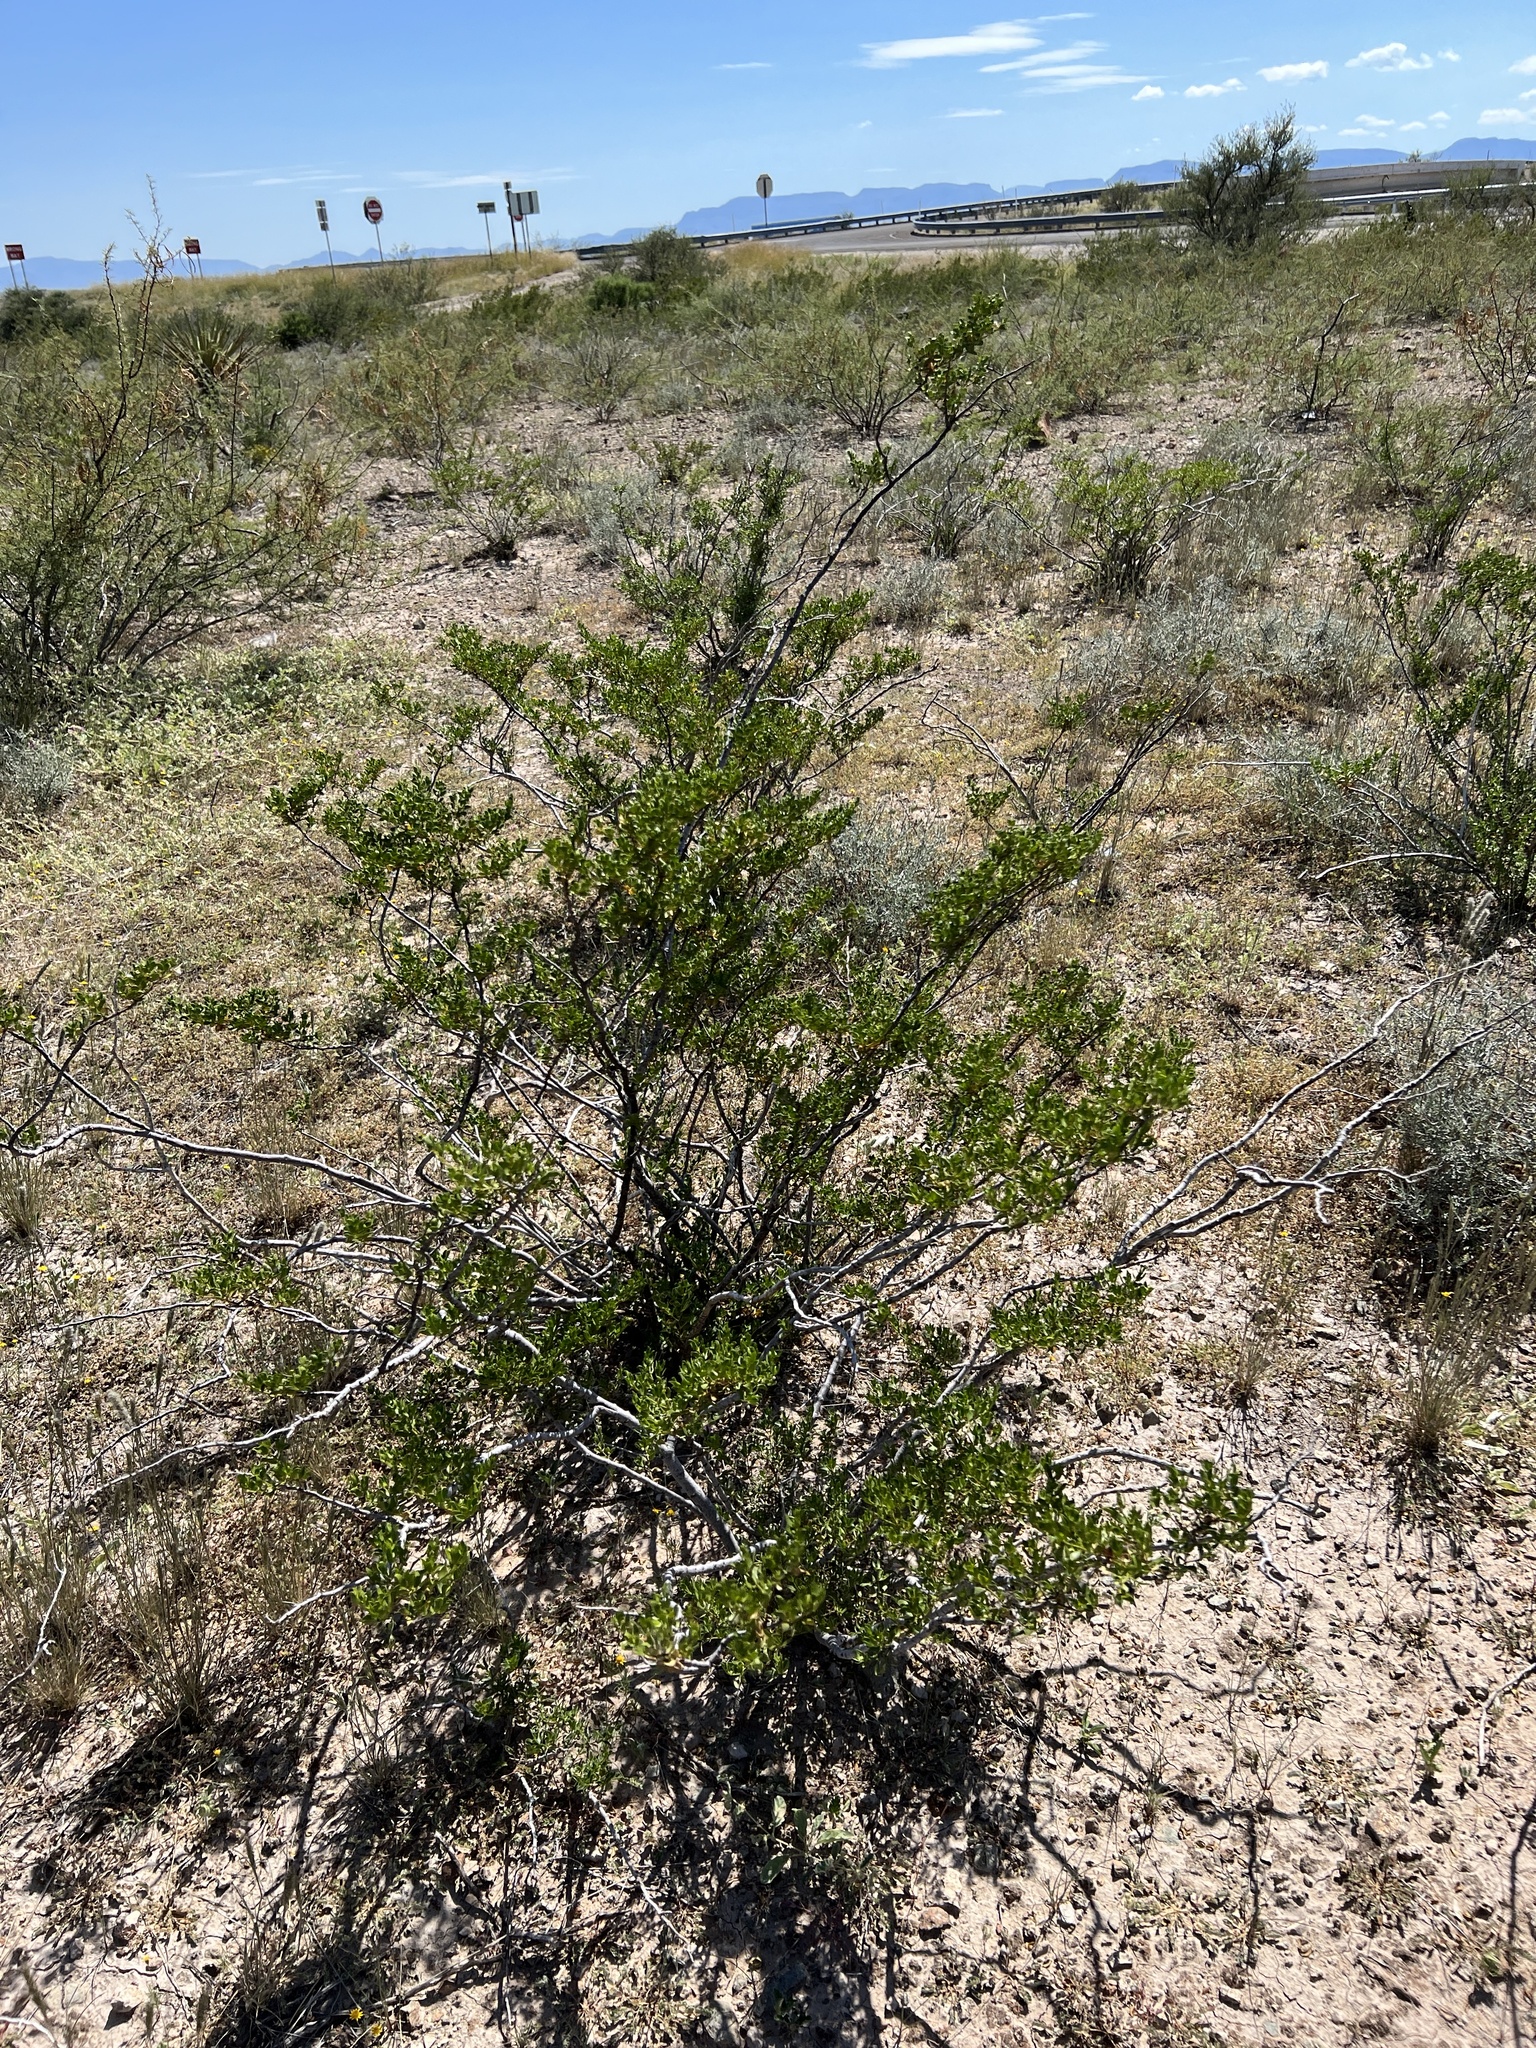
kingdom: Plantae
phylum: Tracheophyta
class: Magnoliopsida
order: Zygophyllales
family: Zygophyllaceae
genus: Larrea
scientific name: Larrea tridentata
